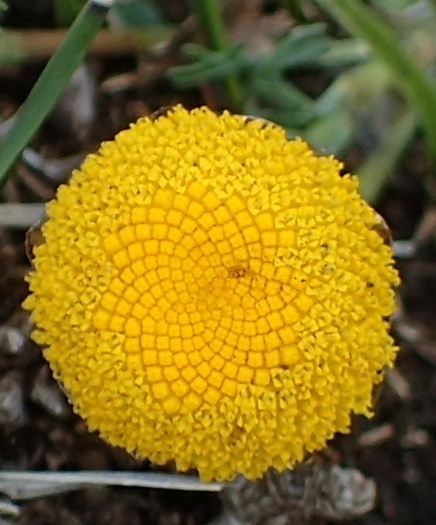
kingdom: Plantae
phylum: Tracheophyta
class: Magnoliopsida
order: Asterales
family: Asteraceae
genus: Cotula
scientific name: Cotula hispida
